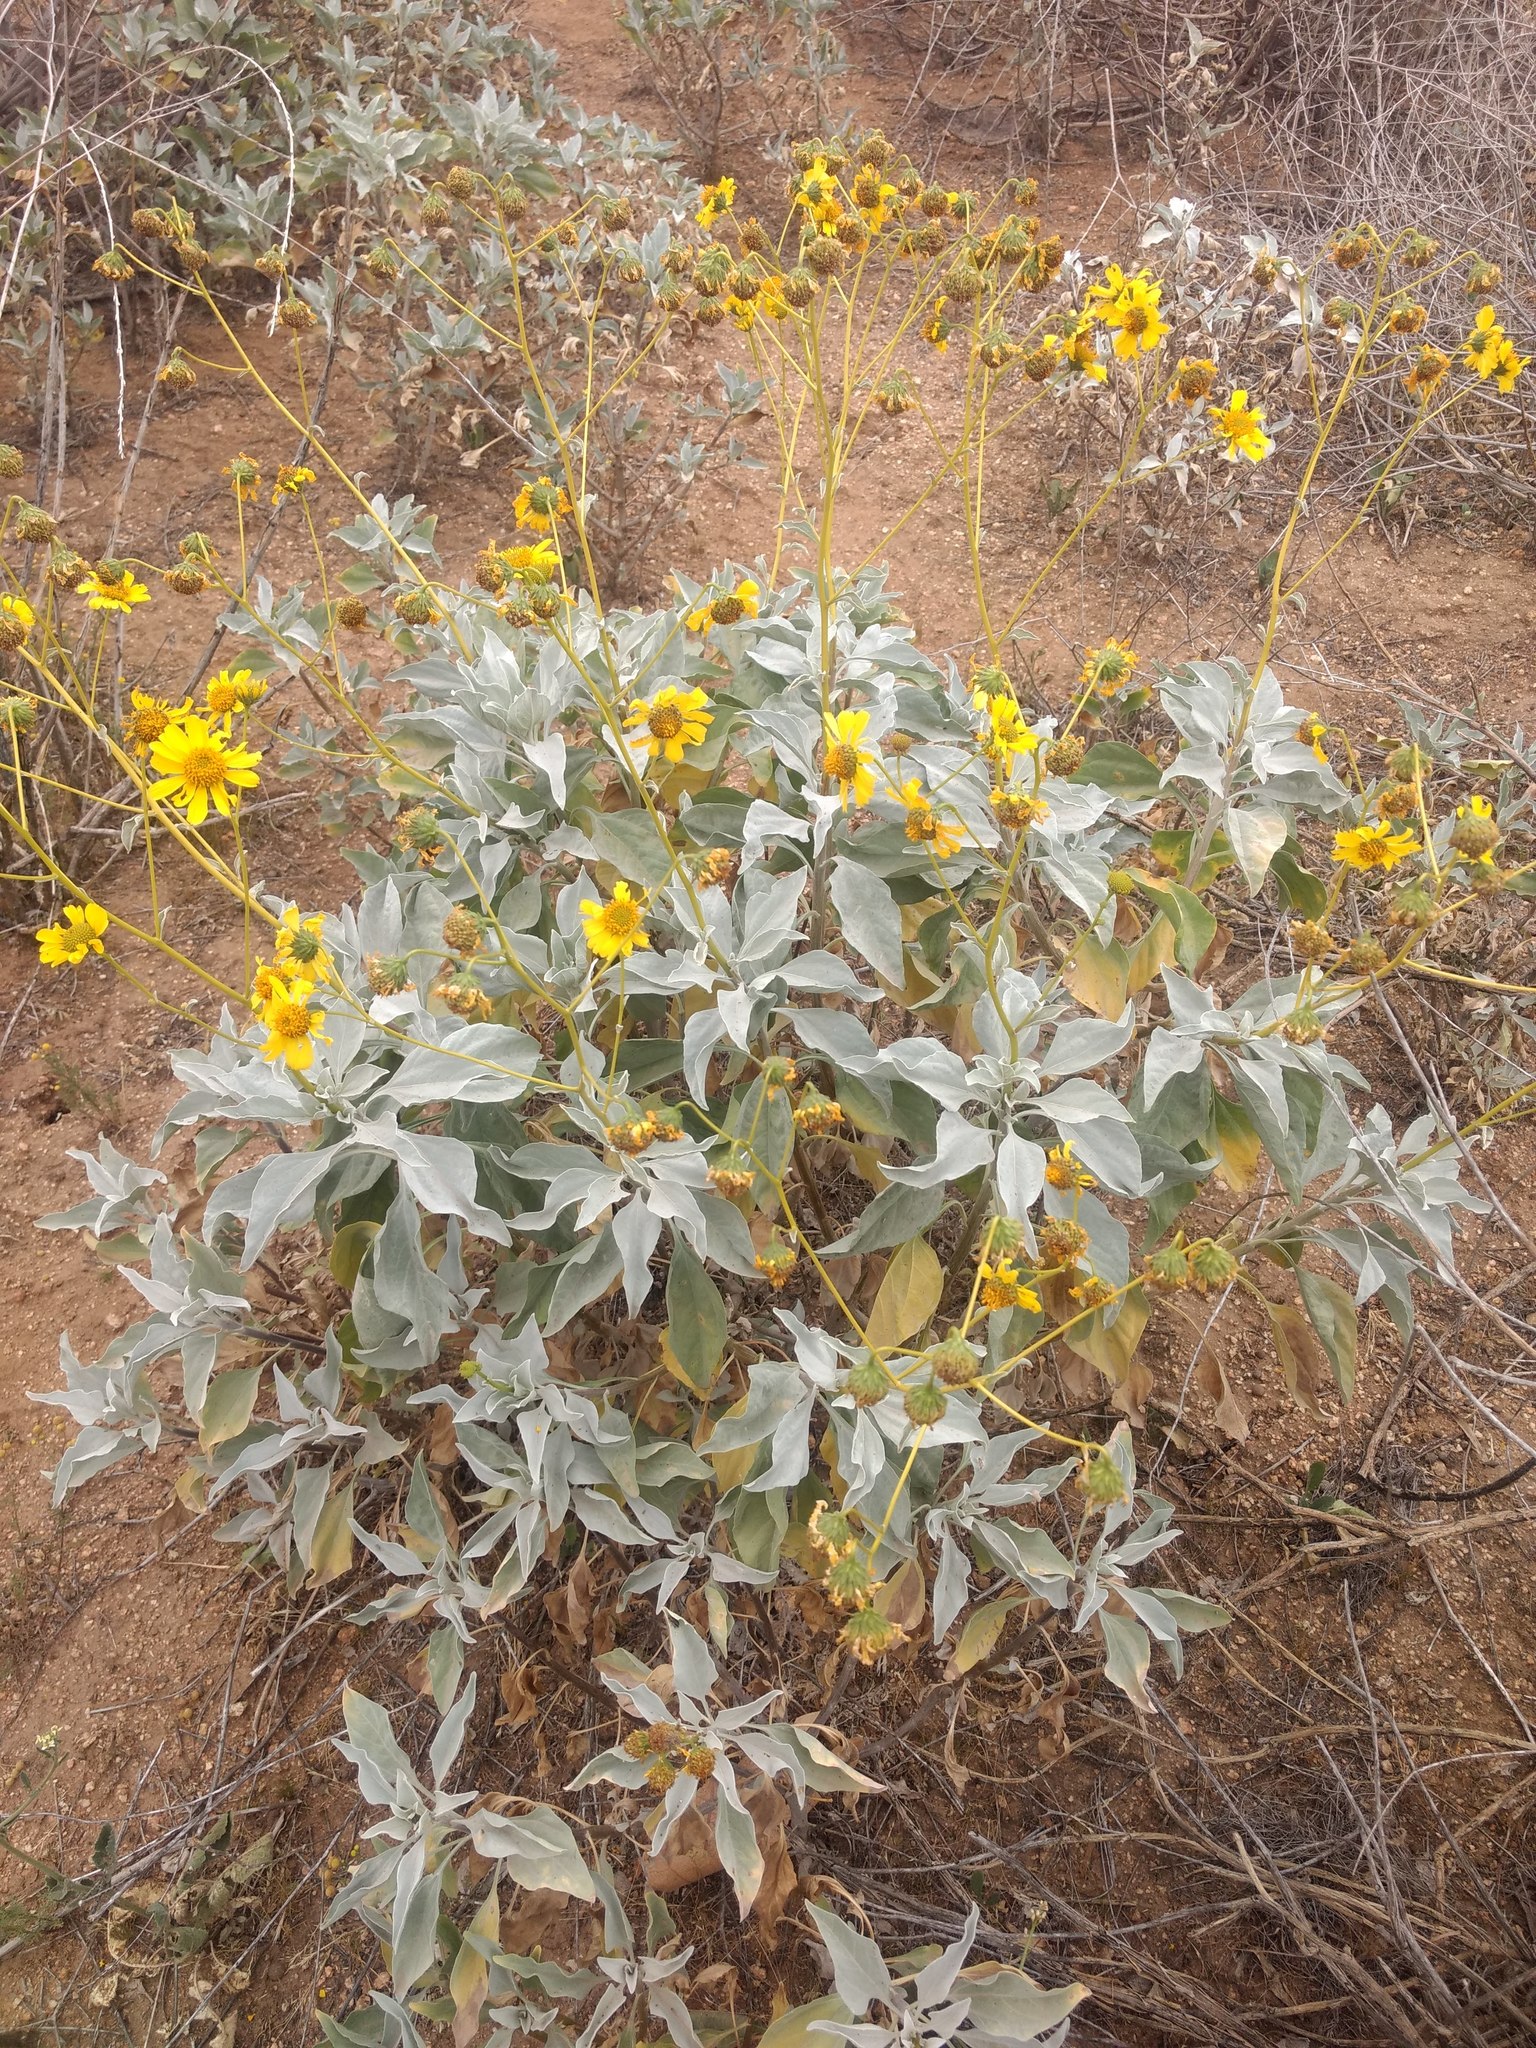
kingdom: Plantae
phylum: Tracheophyta
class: Magnoliopsida
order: Asterales
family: Asteraceae
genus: Encelia
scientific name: Encelia farinosa
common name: Brittlebush
